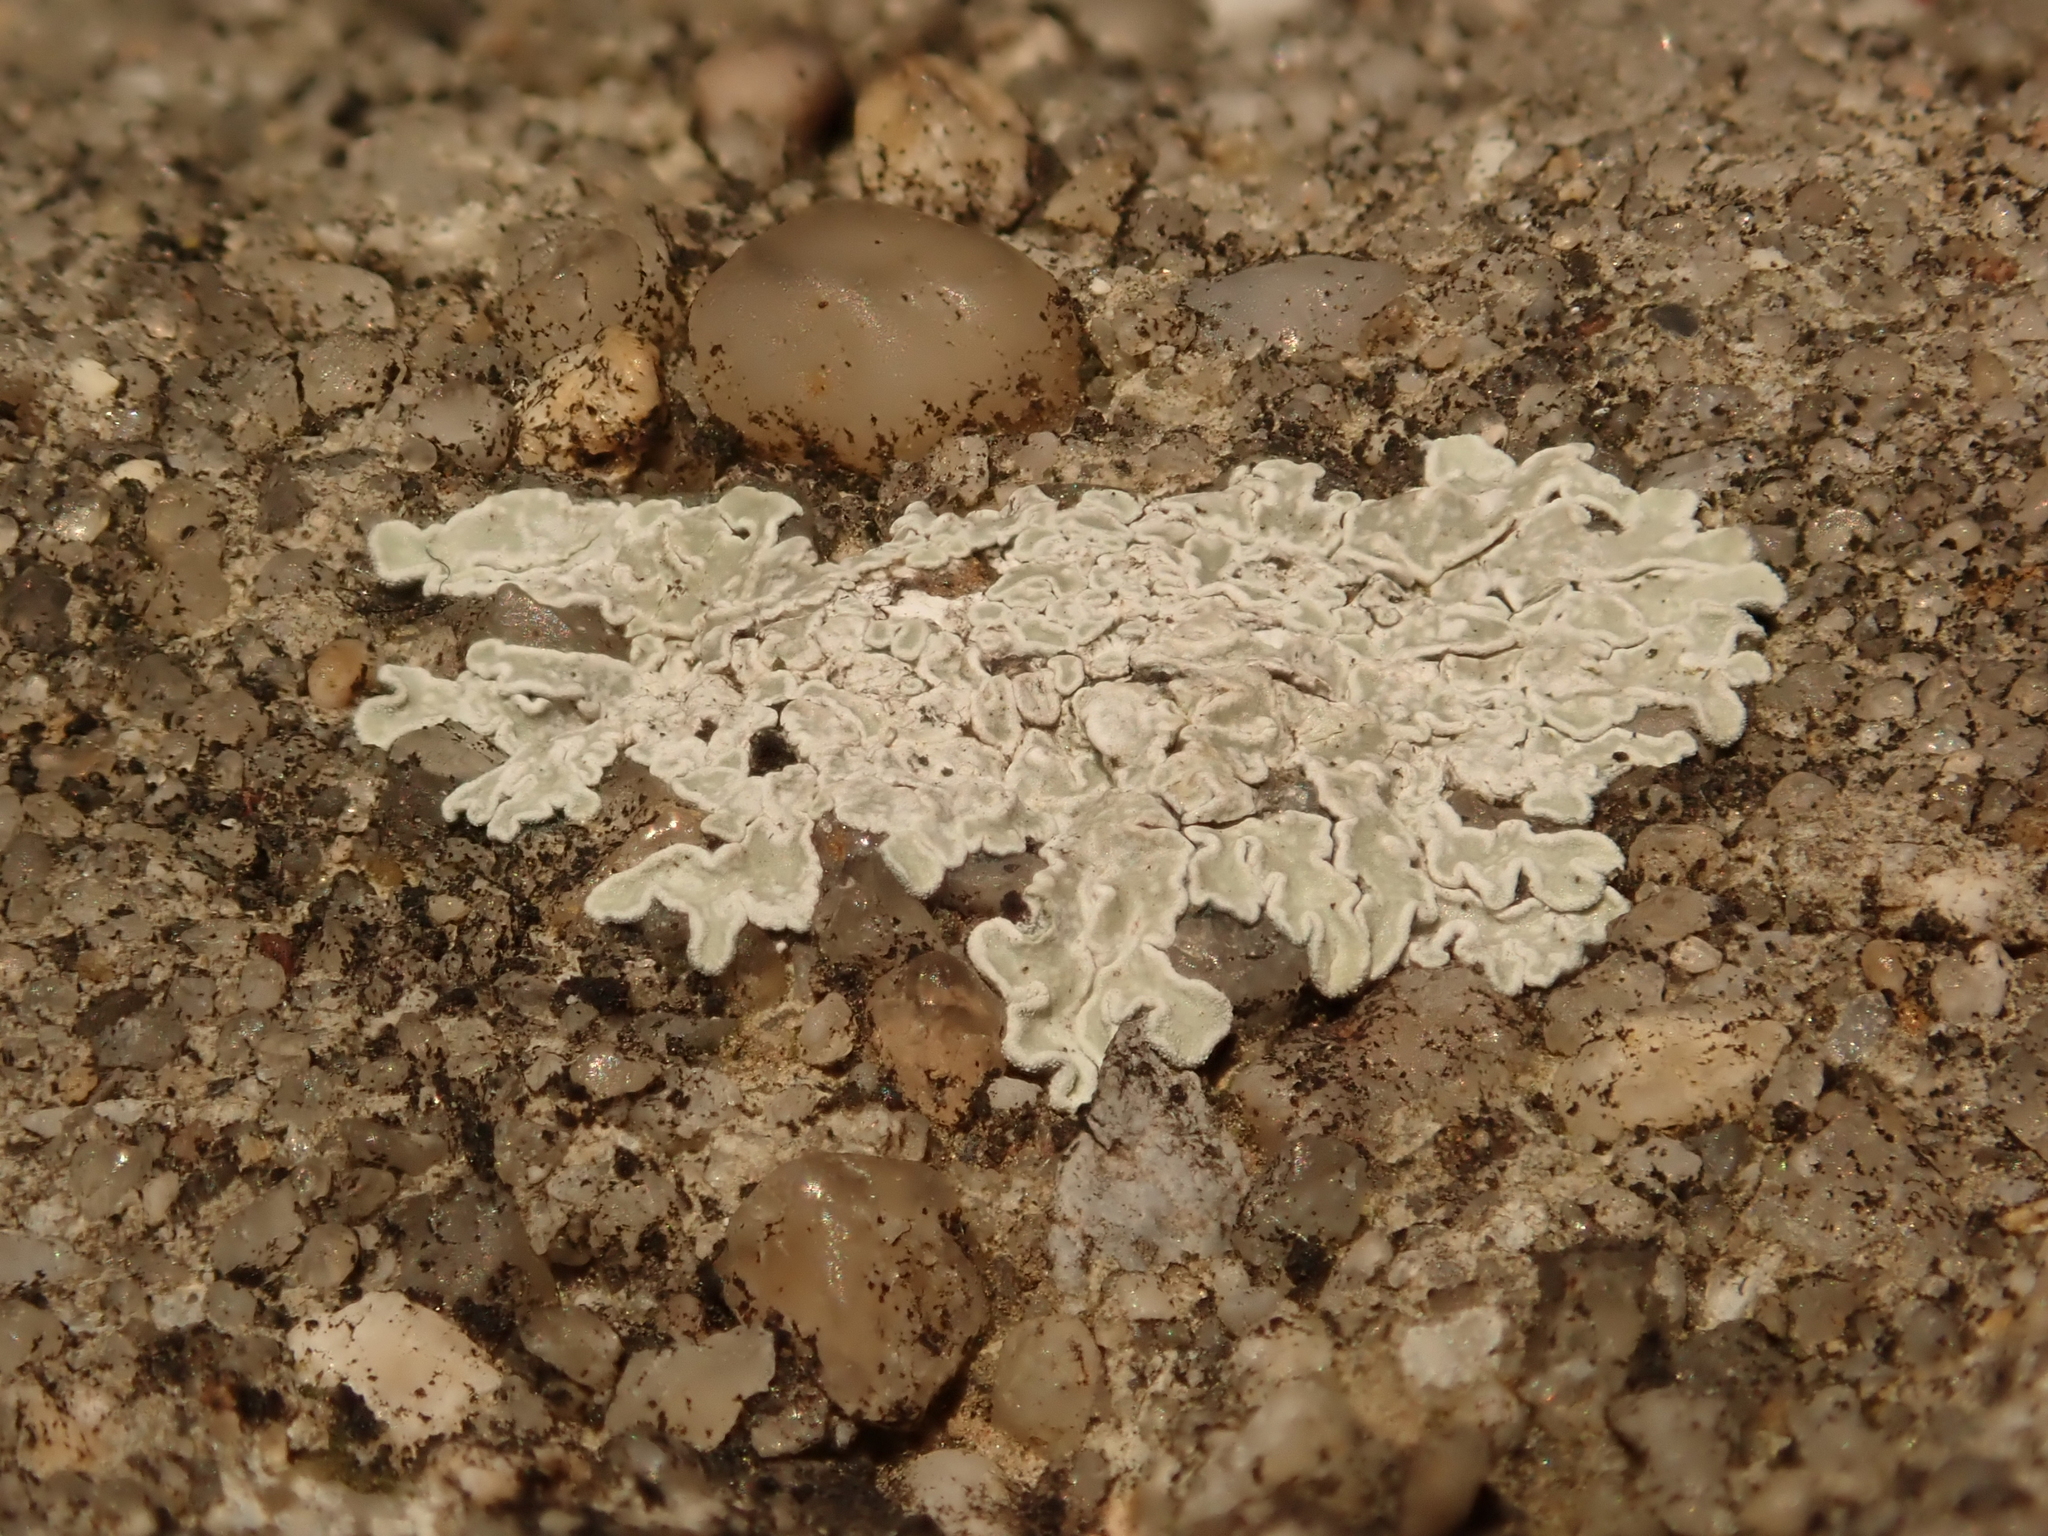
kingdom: Fungi
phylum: Ascomycota
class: Lecanoromycetes
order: Lecanorales
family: Lecanoraceae
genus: Protoparmeliopsis
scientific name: Protoparmeliopsis muralis
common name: Stonewall rim lichen
